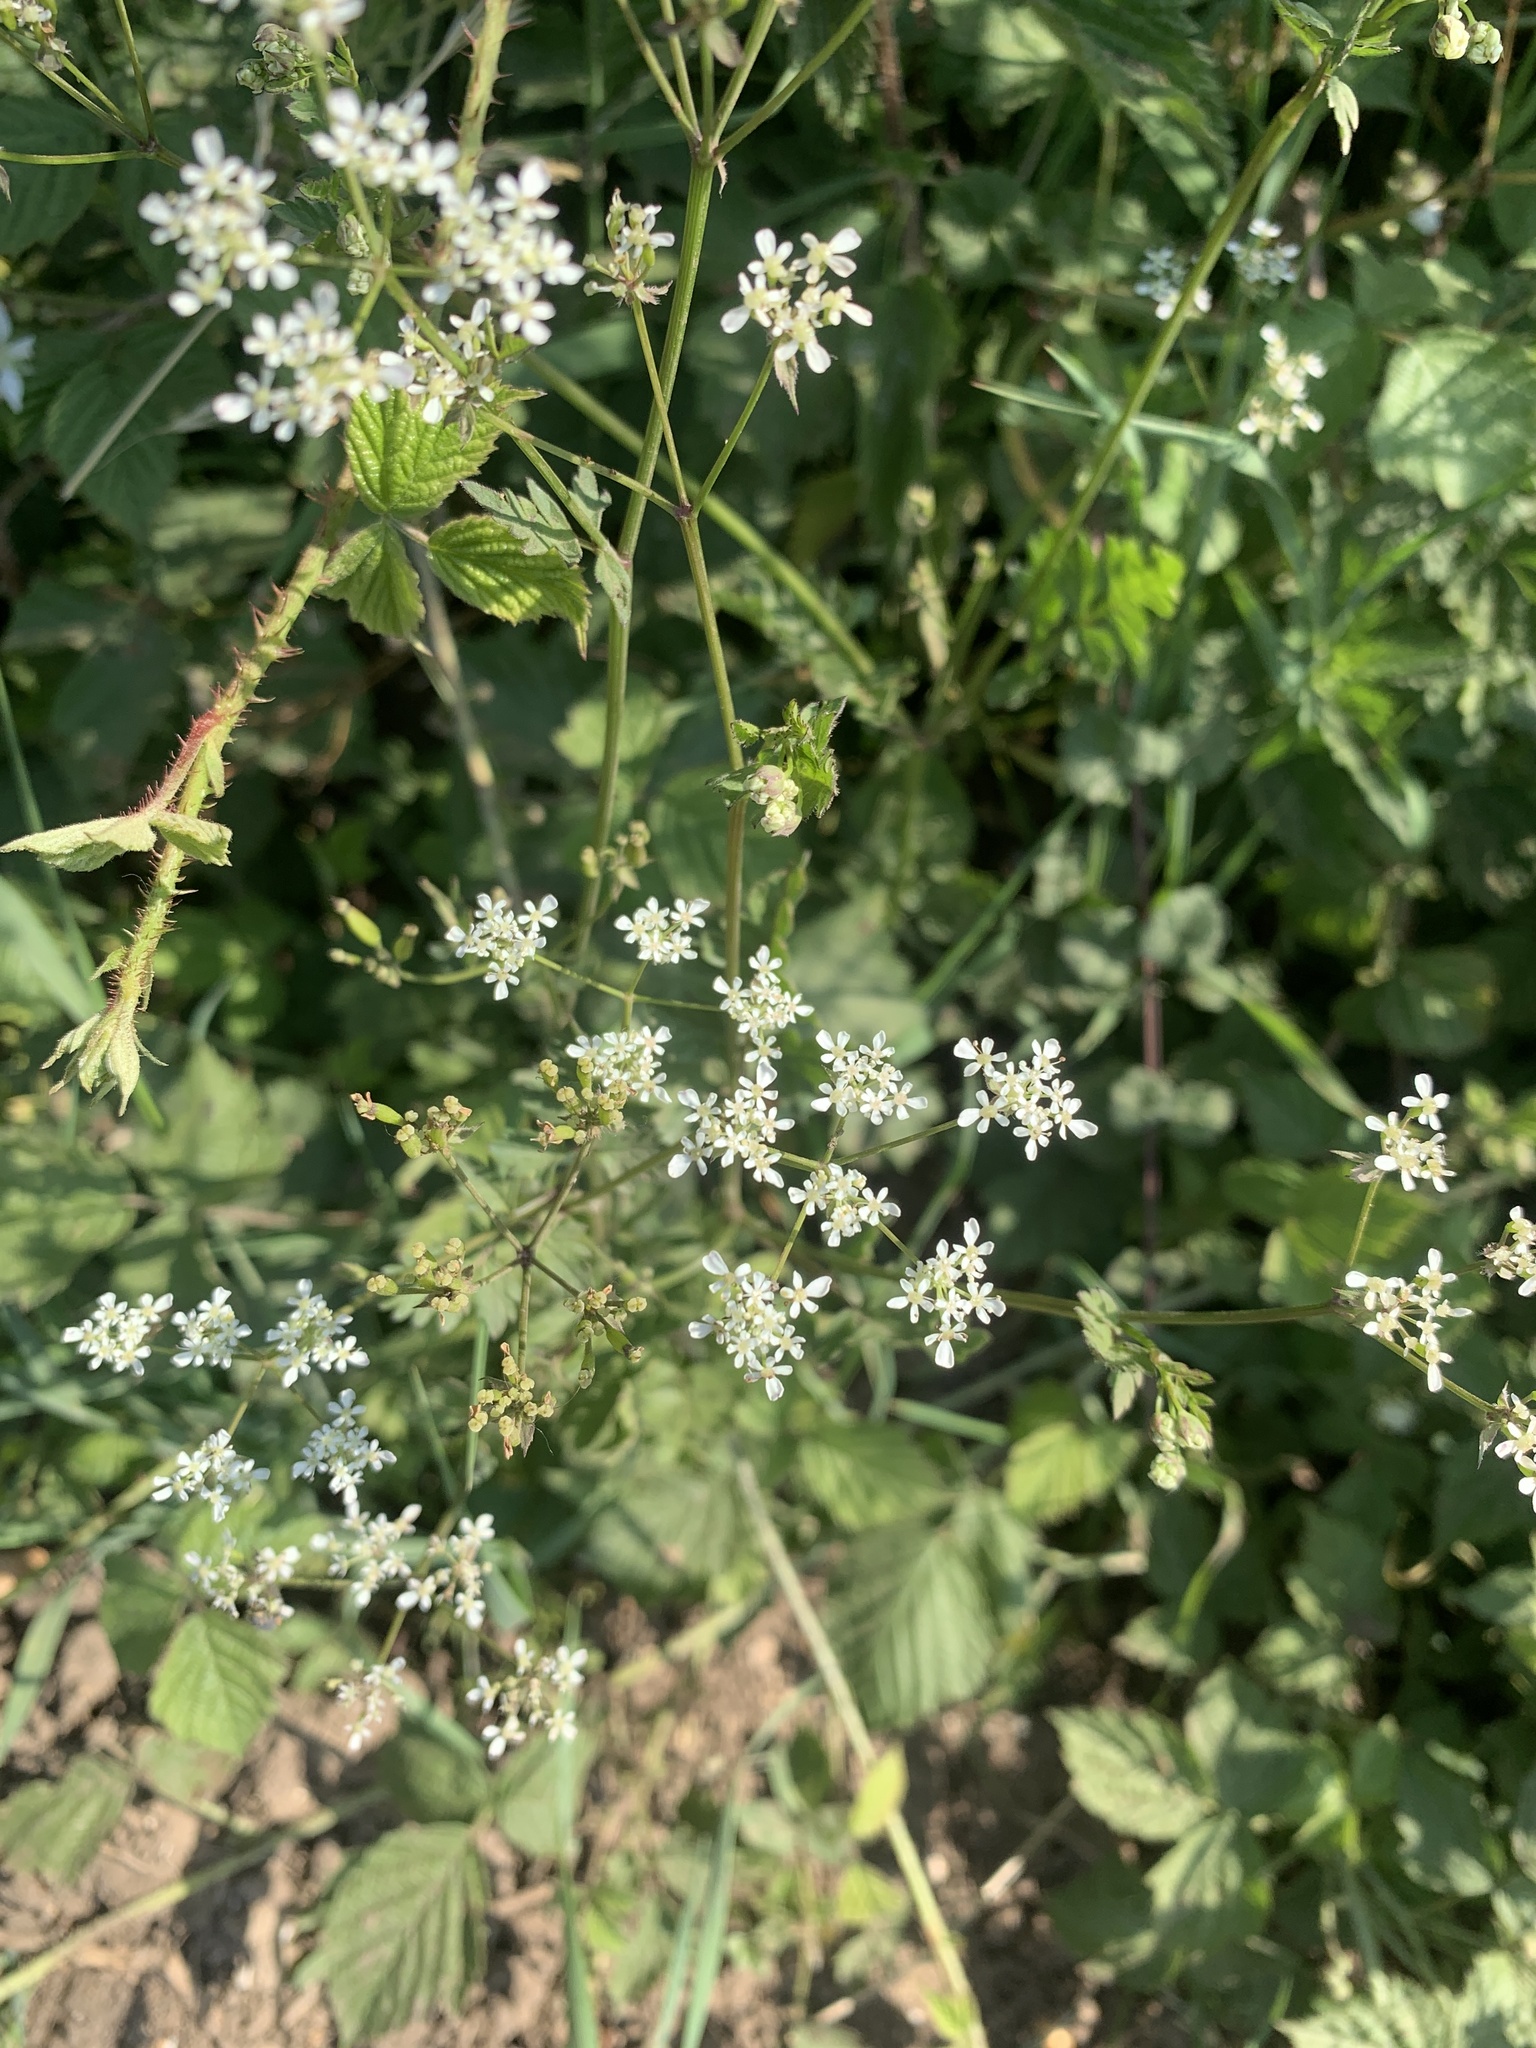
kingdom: Plantae
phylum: Tracheophyta
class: Magnoliopsida
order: Apiales
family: Apiaceae
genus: Anthriscus
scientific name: Anthriscus sylvestris
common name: Cow parsley
